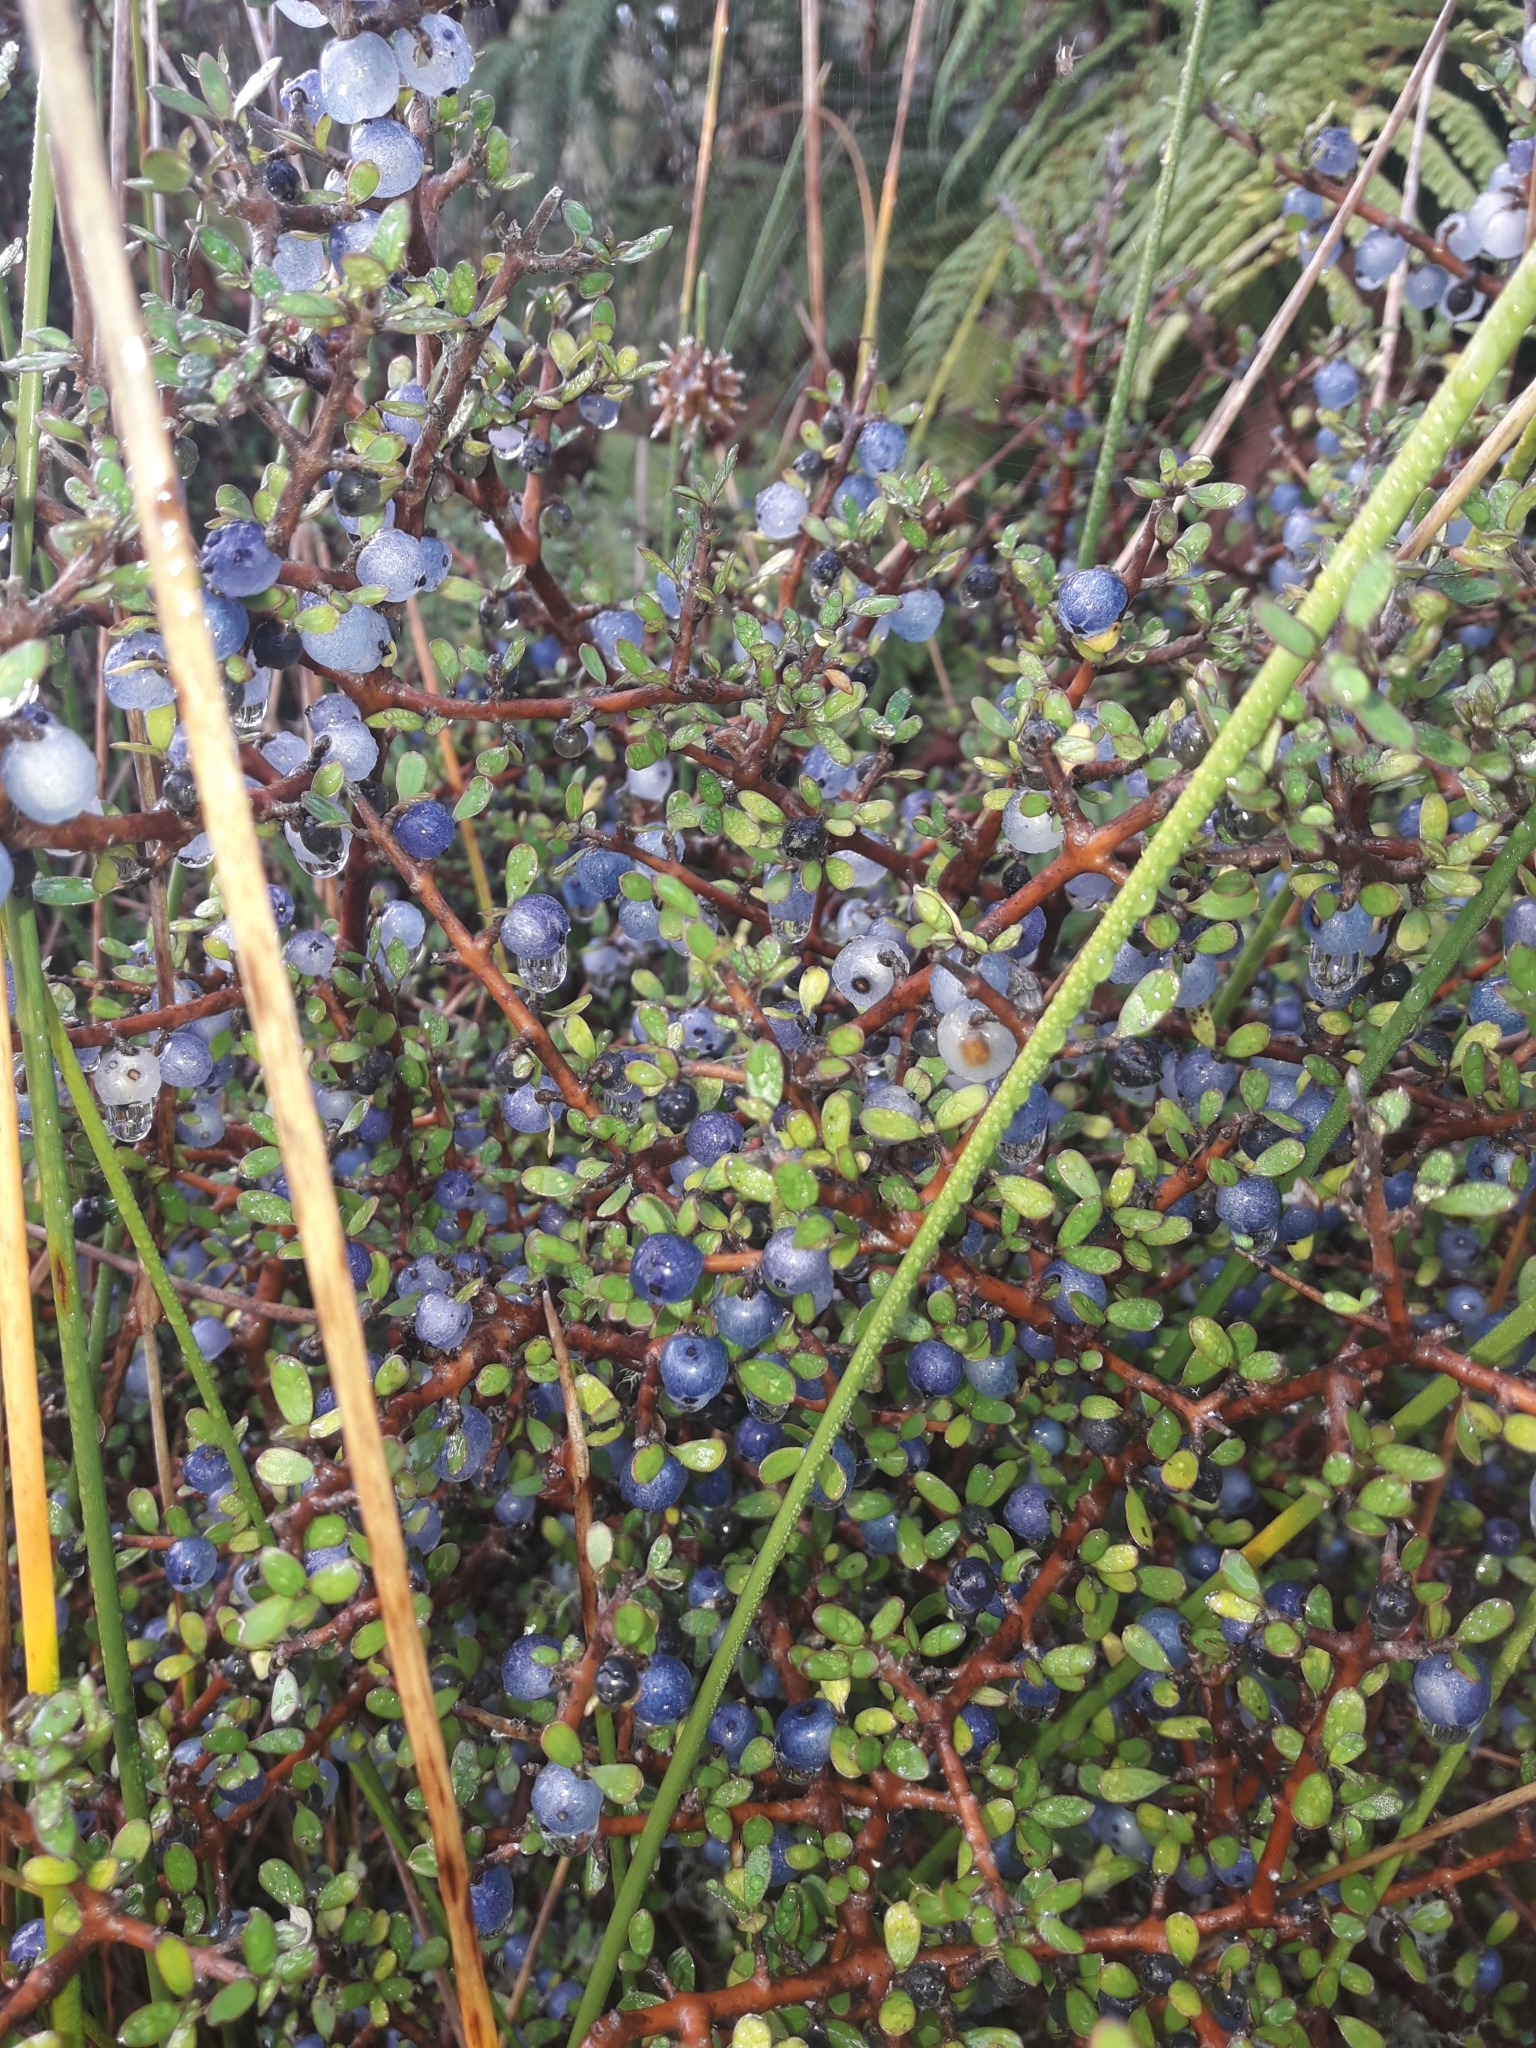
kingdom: Plantae
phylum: Tracheophyta
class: Magnoliopsida
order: Gentianales
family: Rubiaceae
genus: Coprosma
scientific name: Coprosma propinqua
